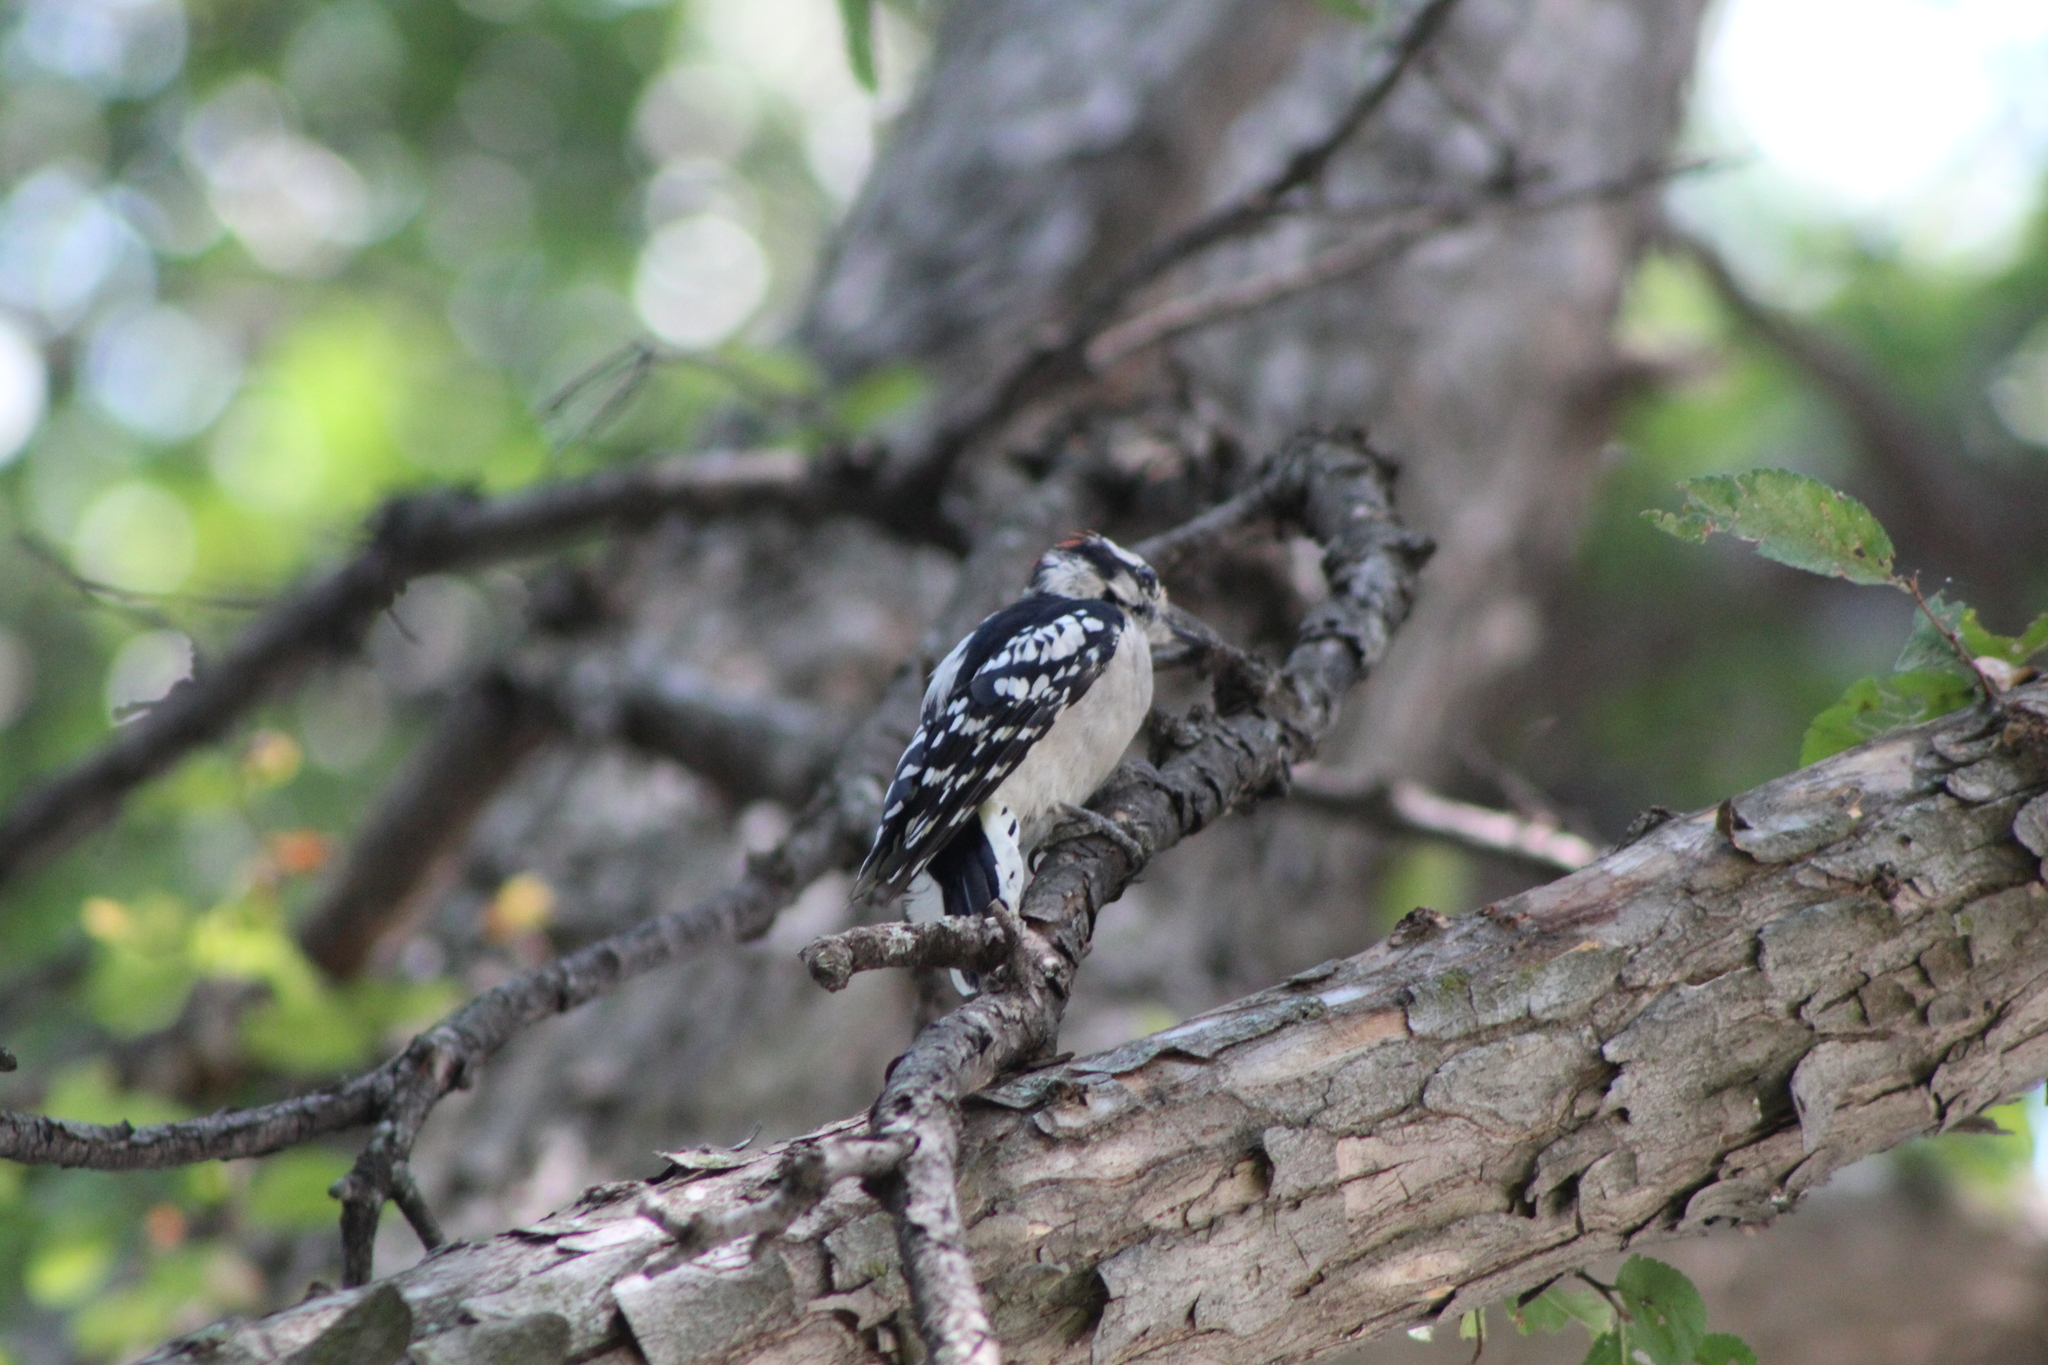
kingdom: Animalia
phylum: Chordata
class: Aves
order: Piciformes
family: Picidae
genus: Dryobates
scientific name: Dryobates pubescens
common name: Downy woodpecker
